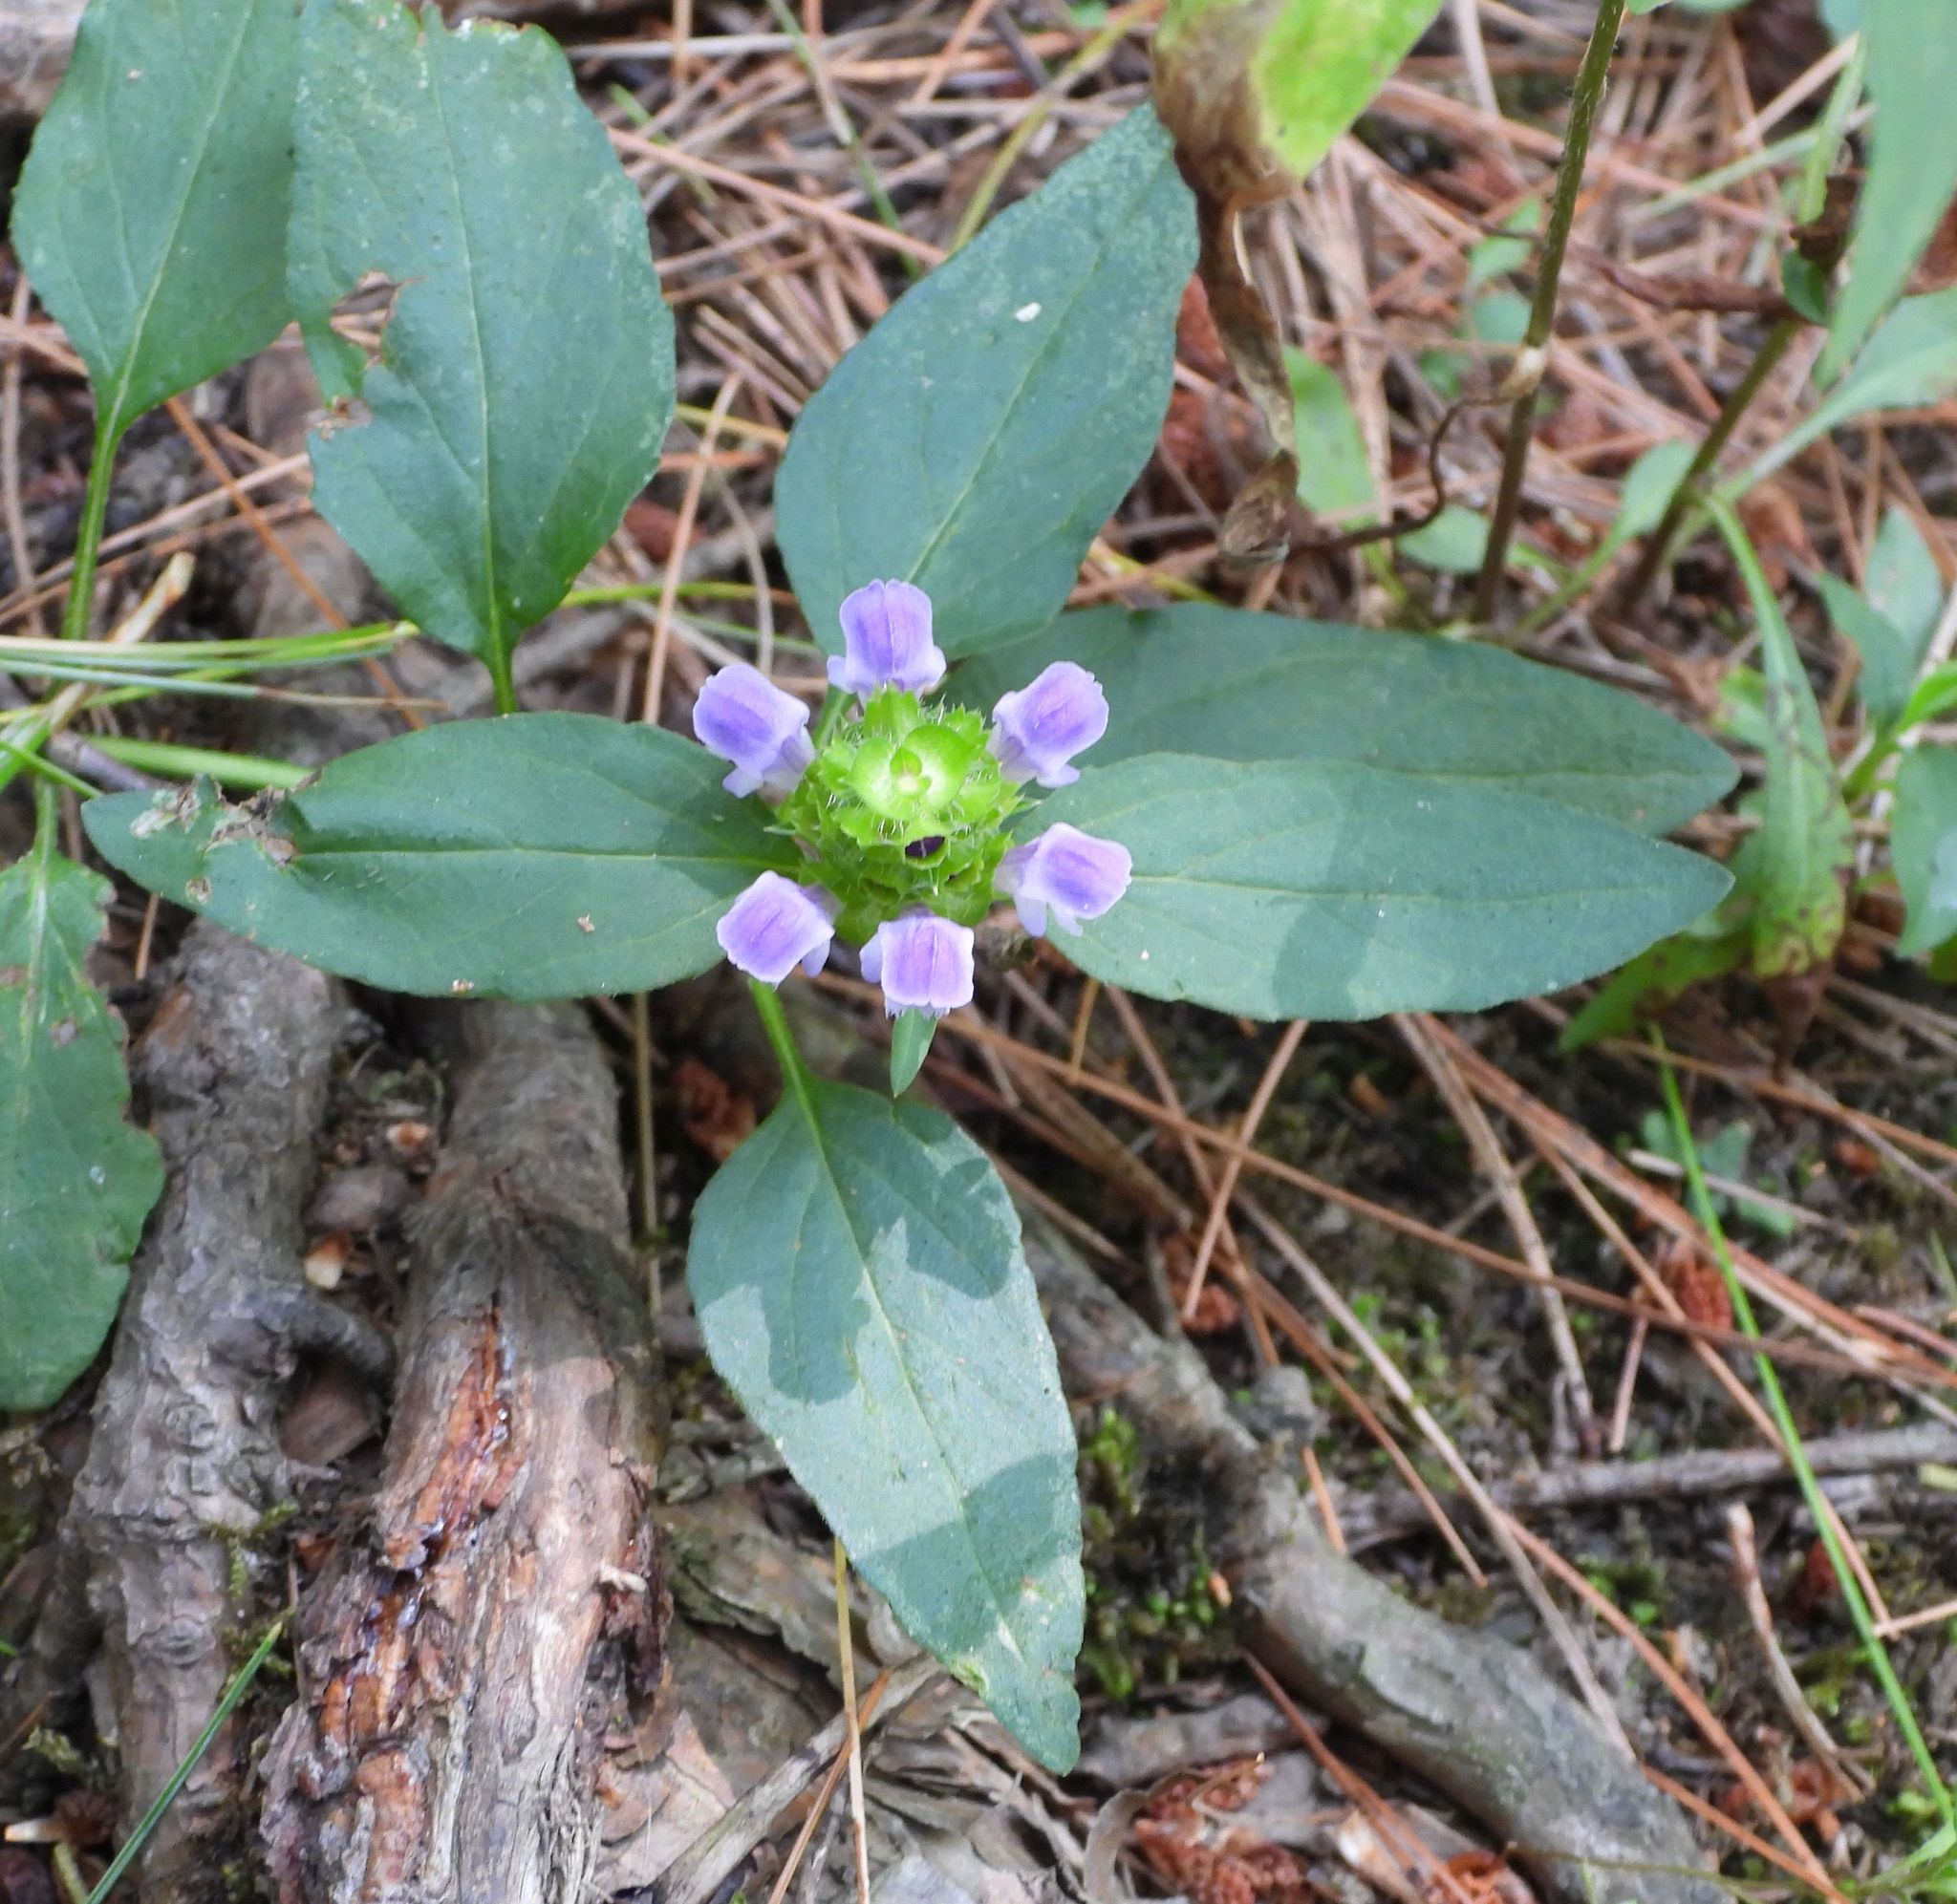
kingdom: Plantae
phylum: Tracheophyta
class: Magnoliopsida
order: Lamiales
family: Lamiaceae
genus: Prunella
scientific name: Prunella vulgaris
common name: Heal-all
